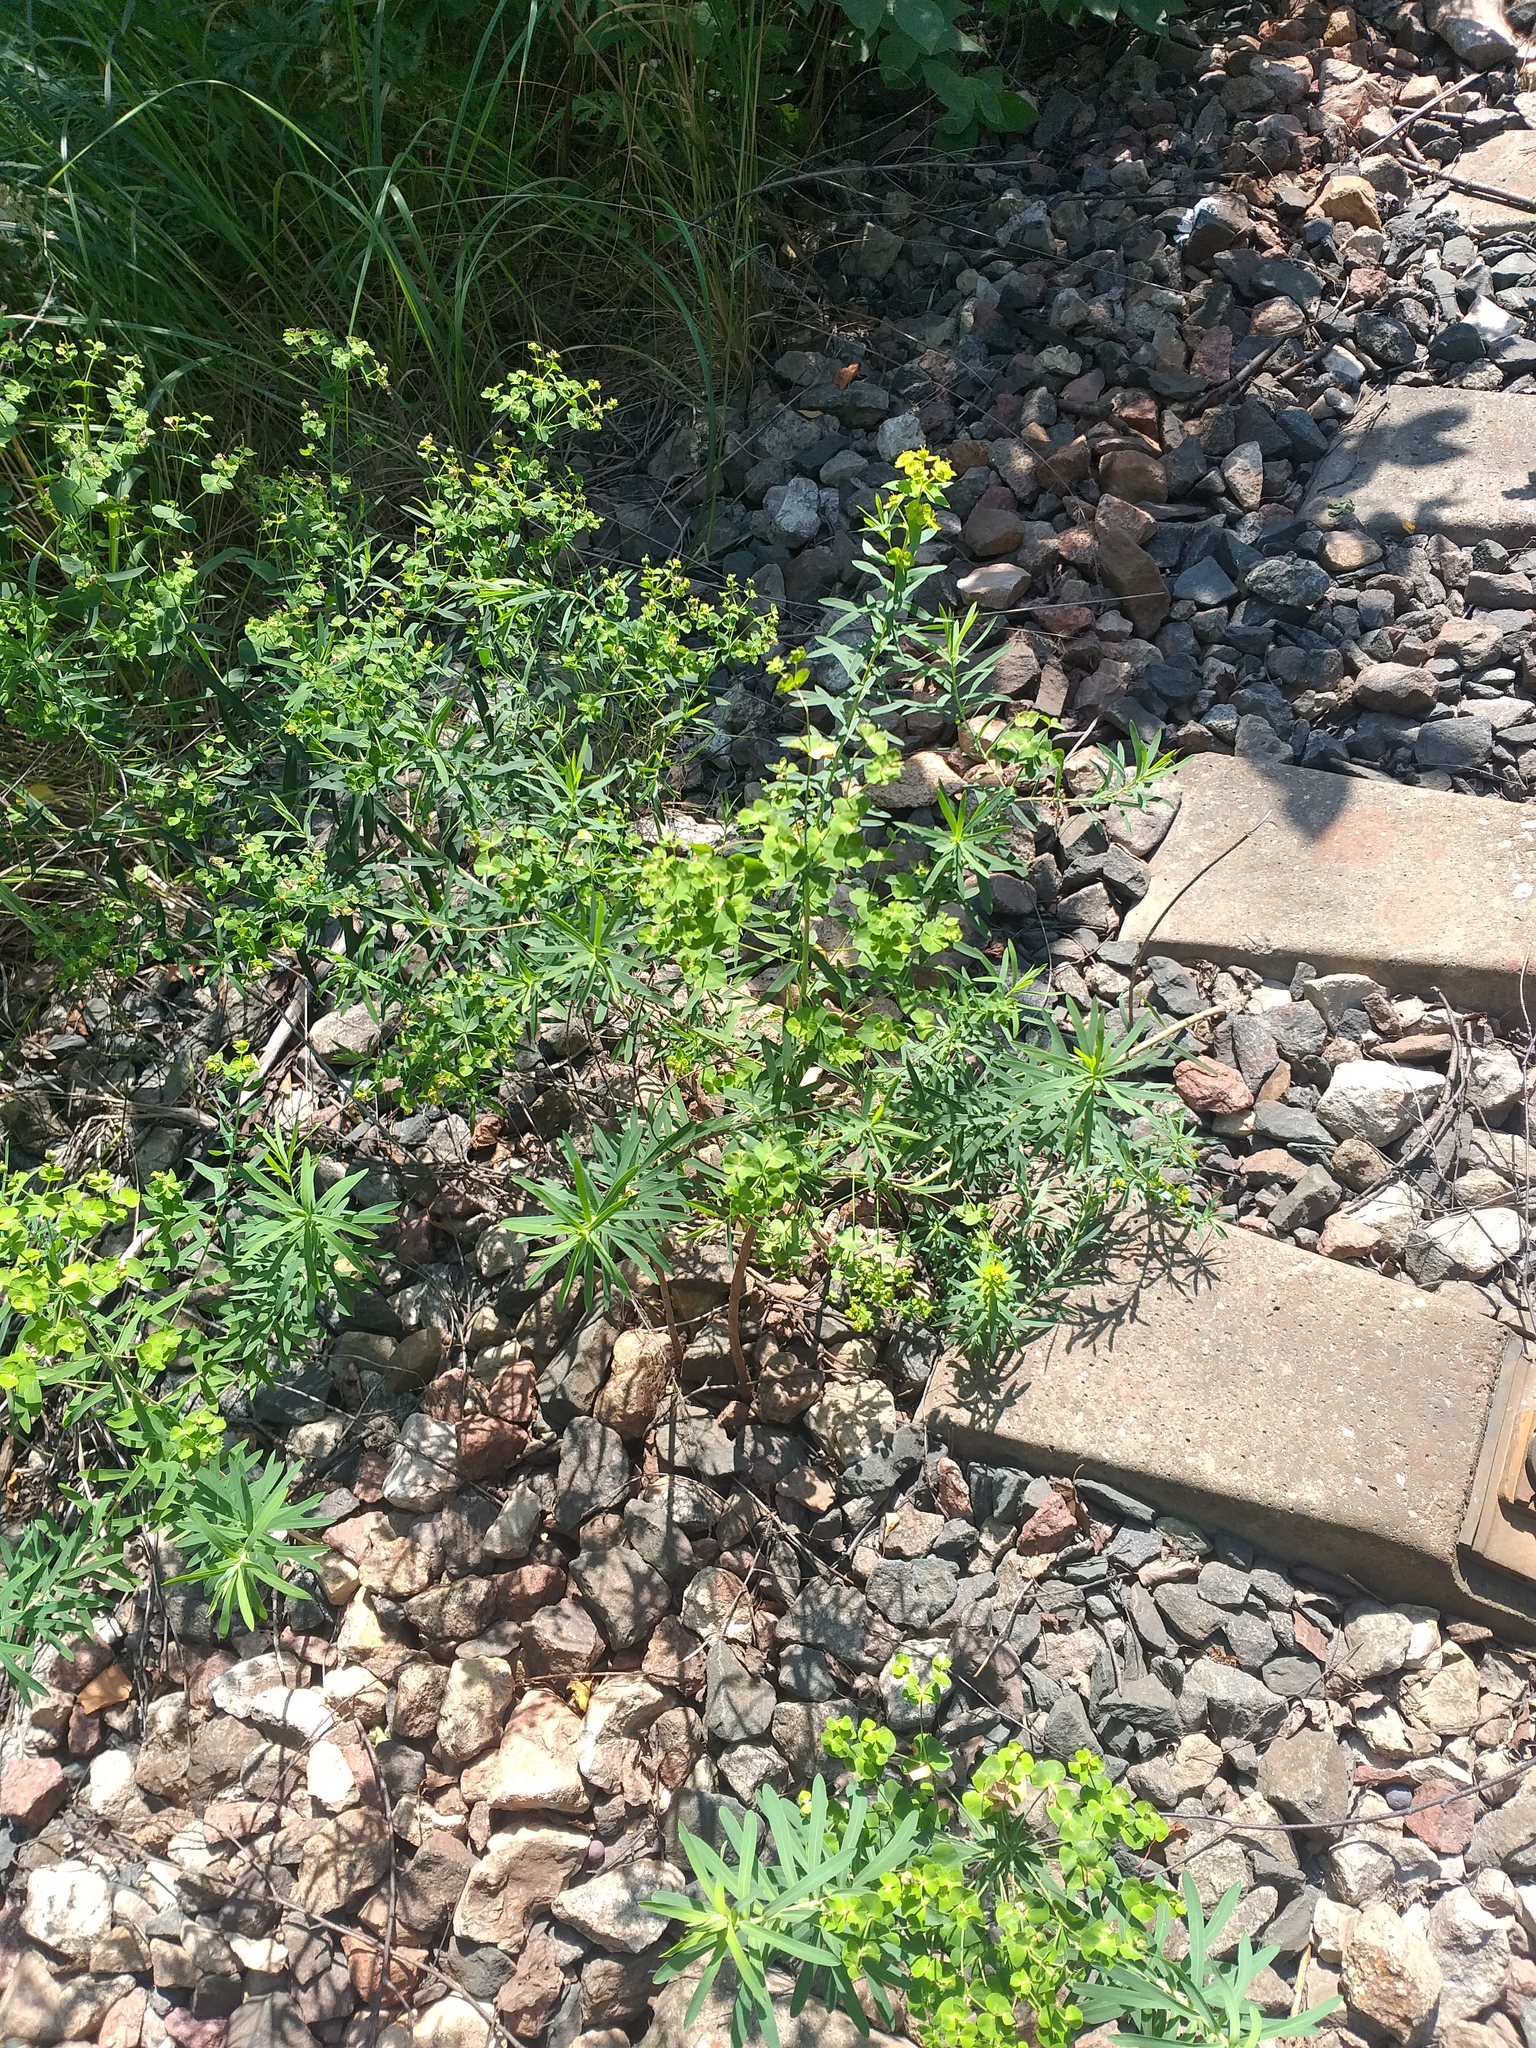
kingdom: Plantae
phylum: Tracheophyta
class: Magnoliopsida
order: Malpighiales
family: Euphorbiaceae
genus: Euphorbia
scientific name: Euphorbia virgata
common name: Leafy spurge
